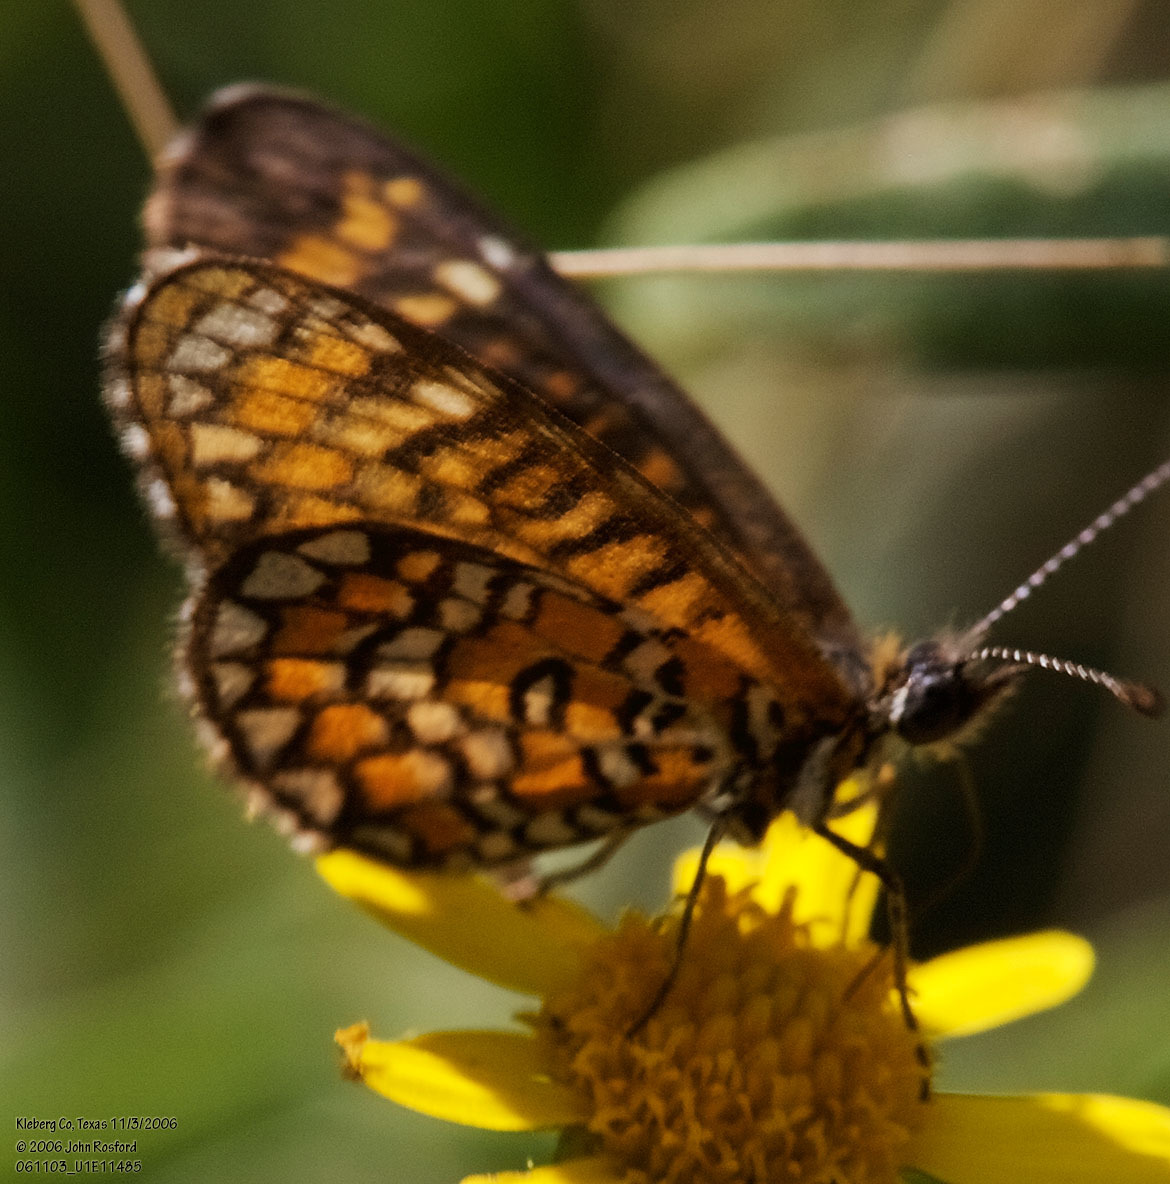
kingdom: Animalia
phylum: Arthropoda
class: Insecta
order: Lepidoptera
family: Nymphalidae
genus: Dymasia
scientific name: Dymasia dymas
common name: Tiny checkerspot
